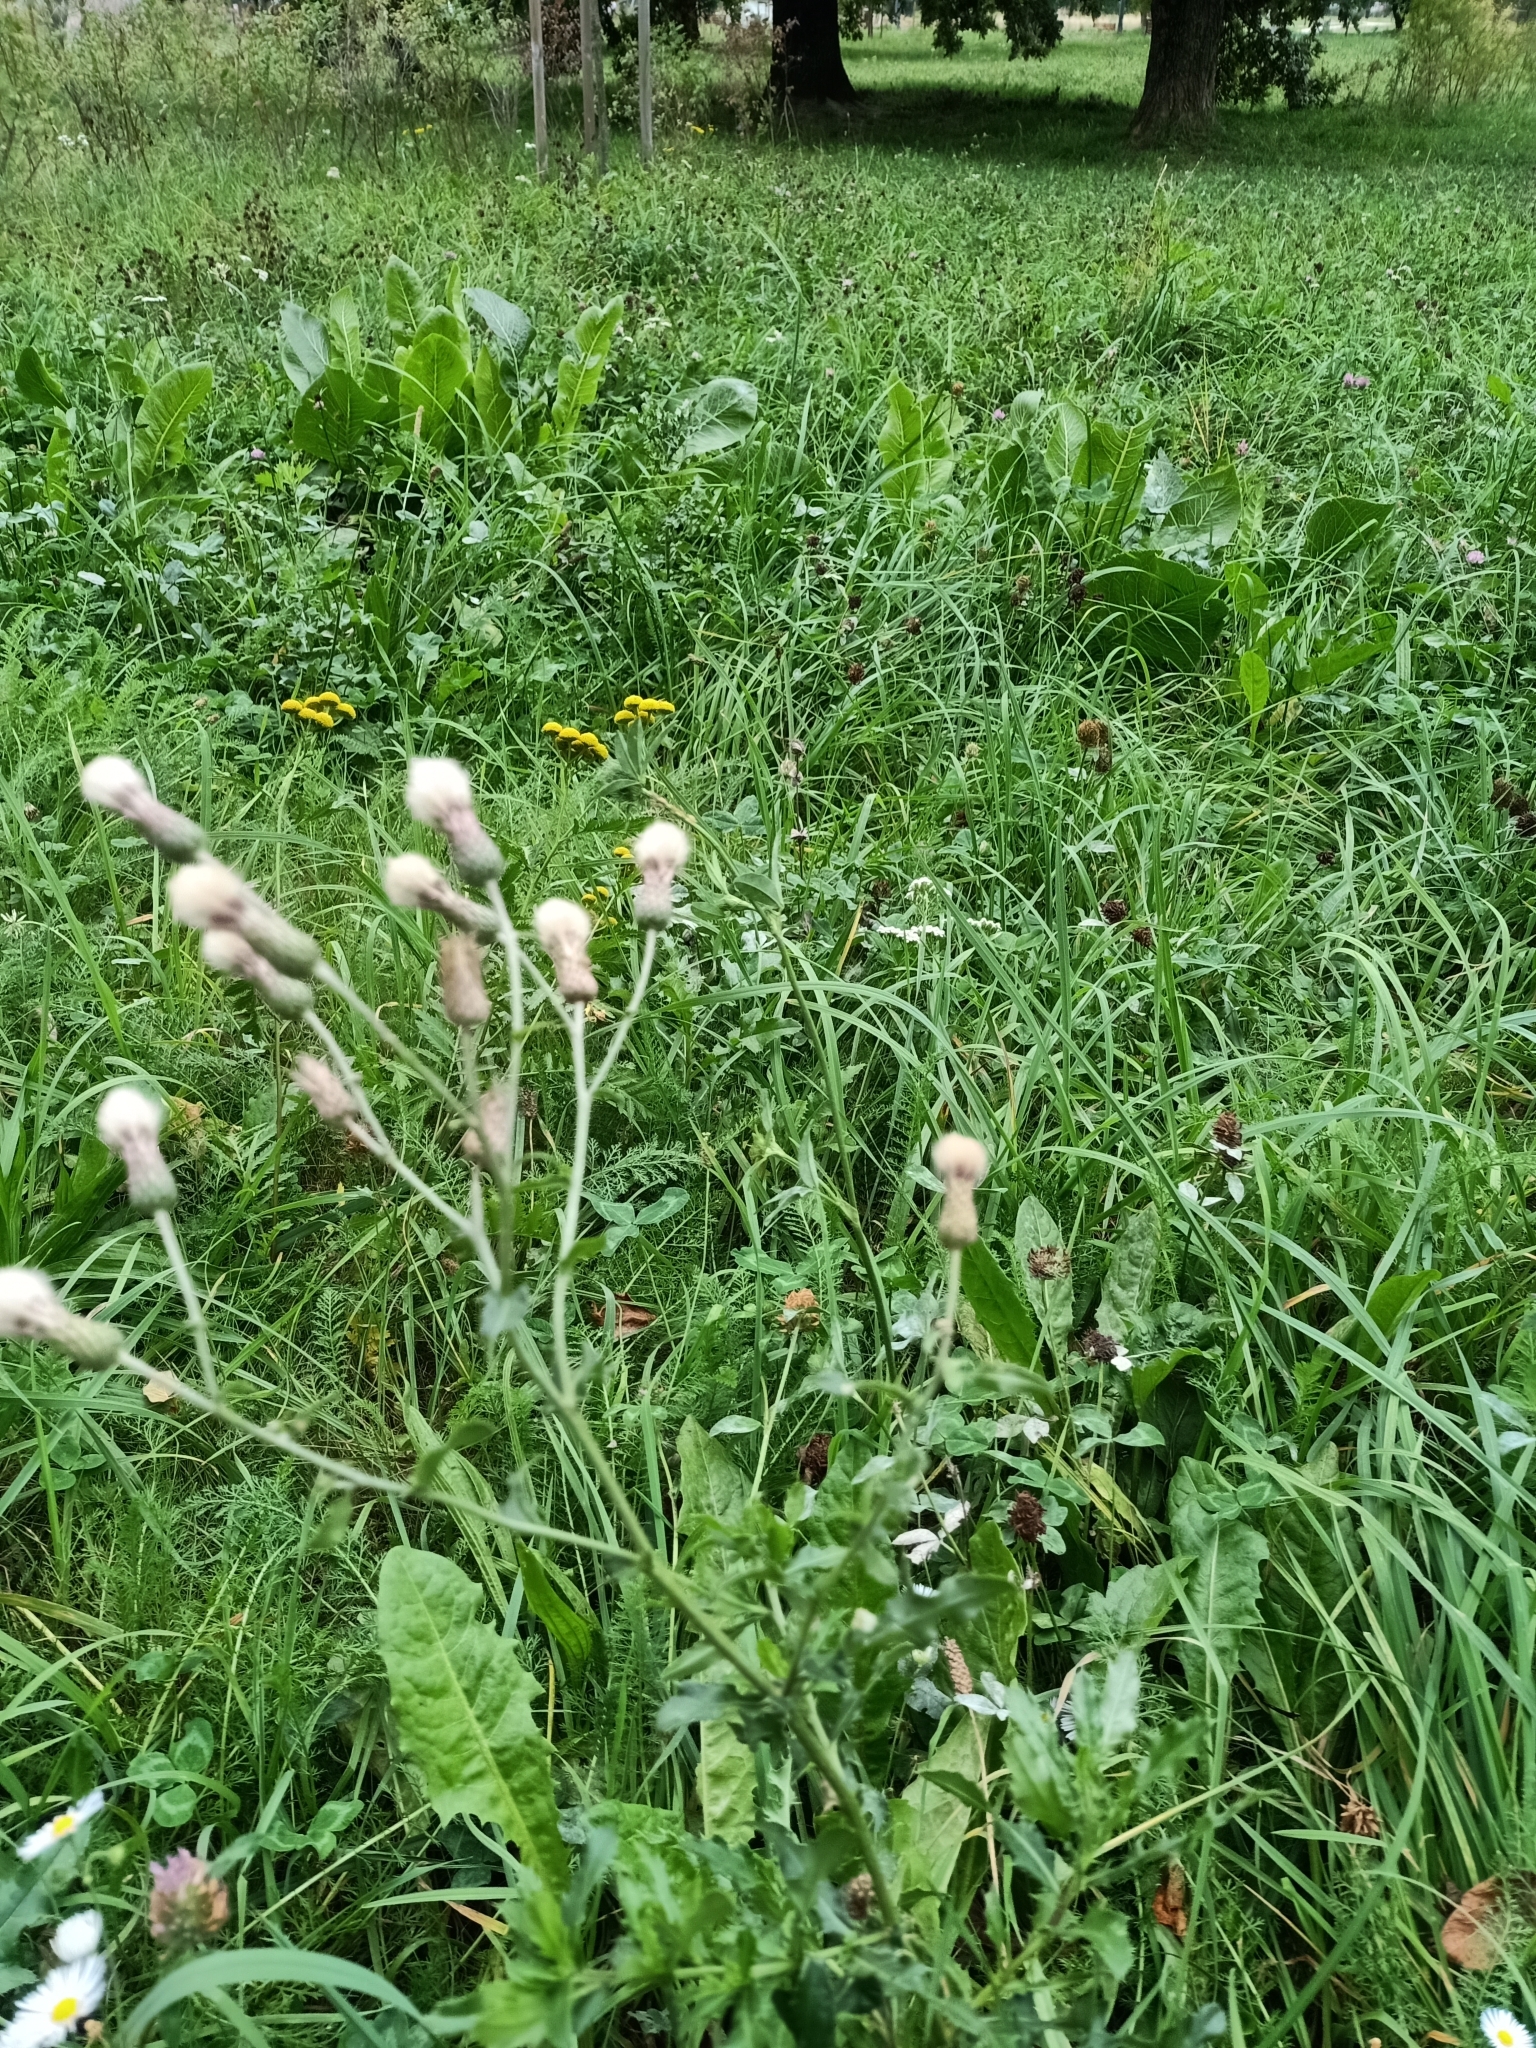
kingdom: Plantae
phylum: Tracheophyta
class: Magnoliopsida
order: Asterales
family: Asteraceae
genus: Cirsium
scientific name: Cirsium arvense
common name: Creeping thistle
